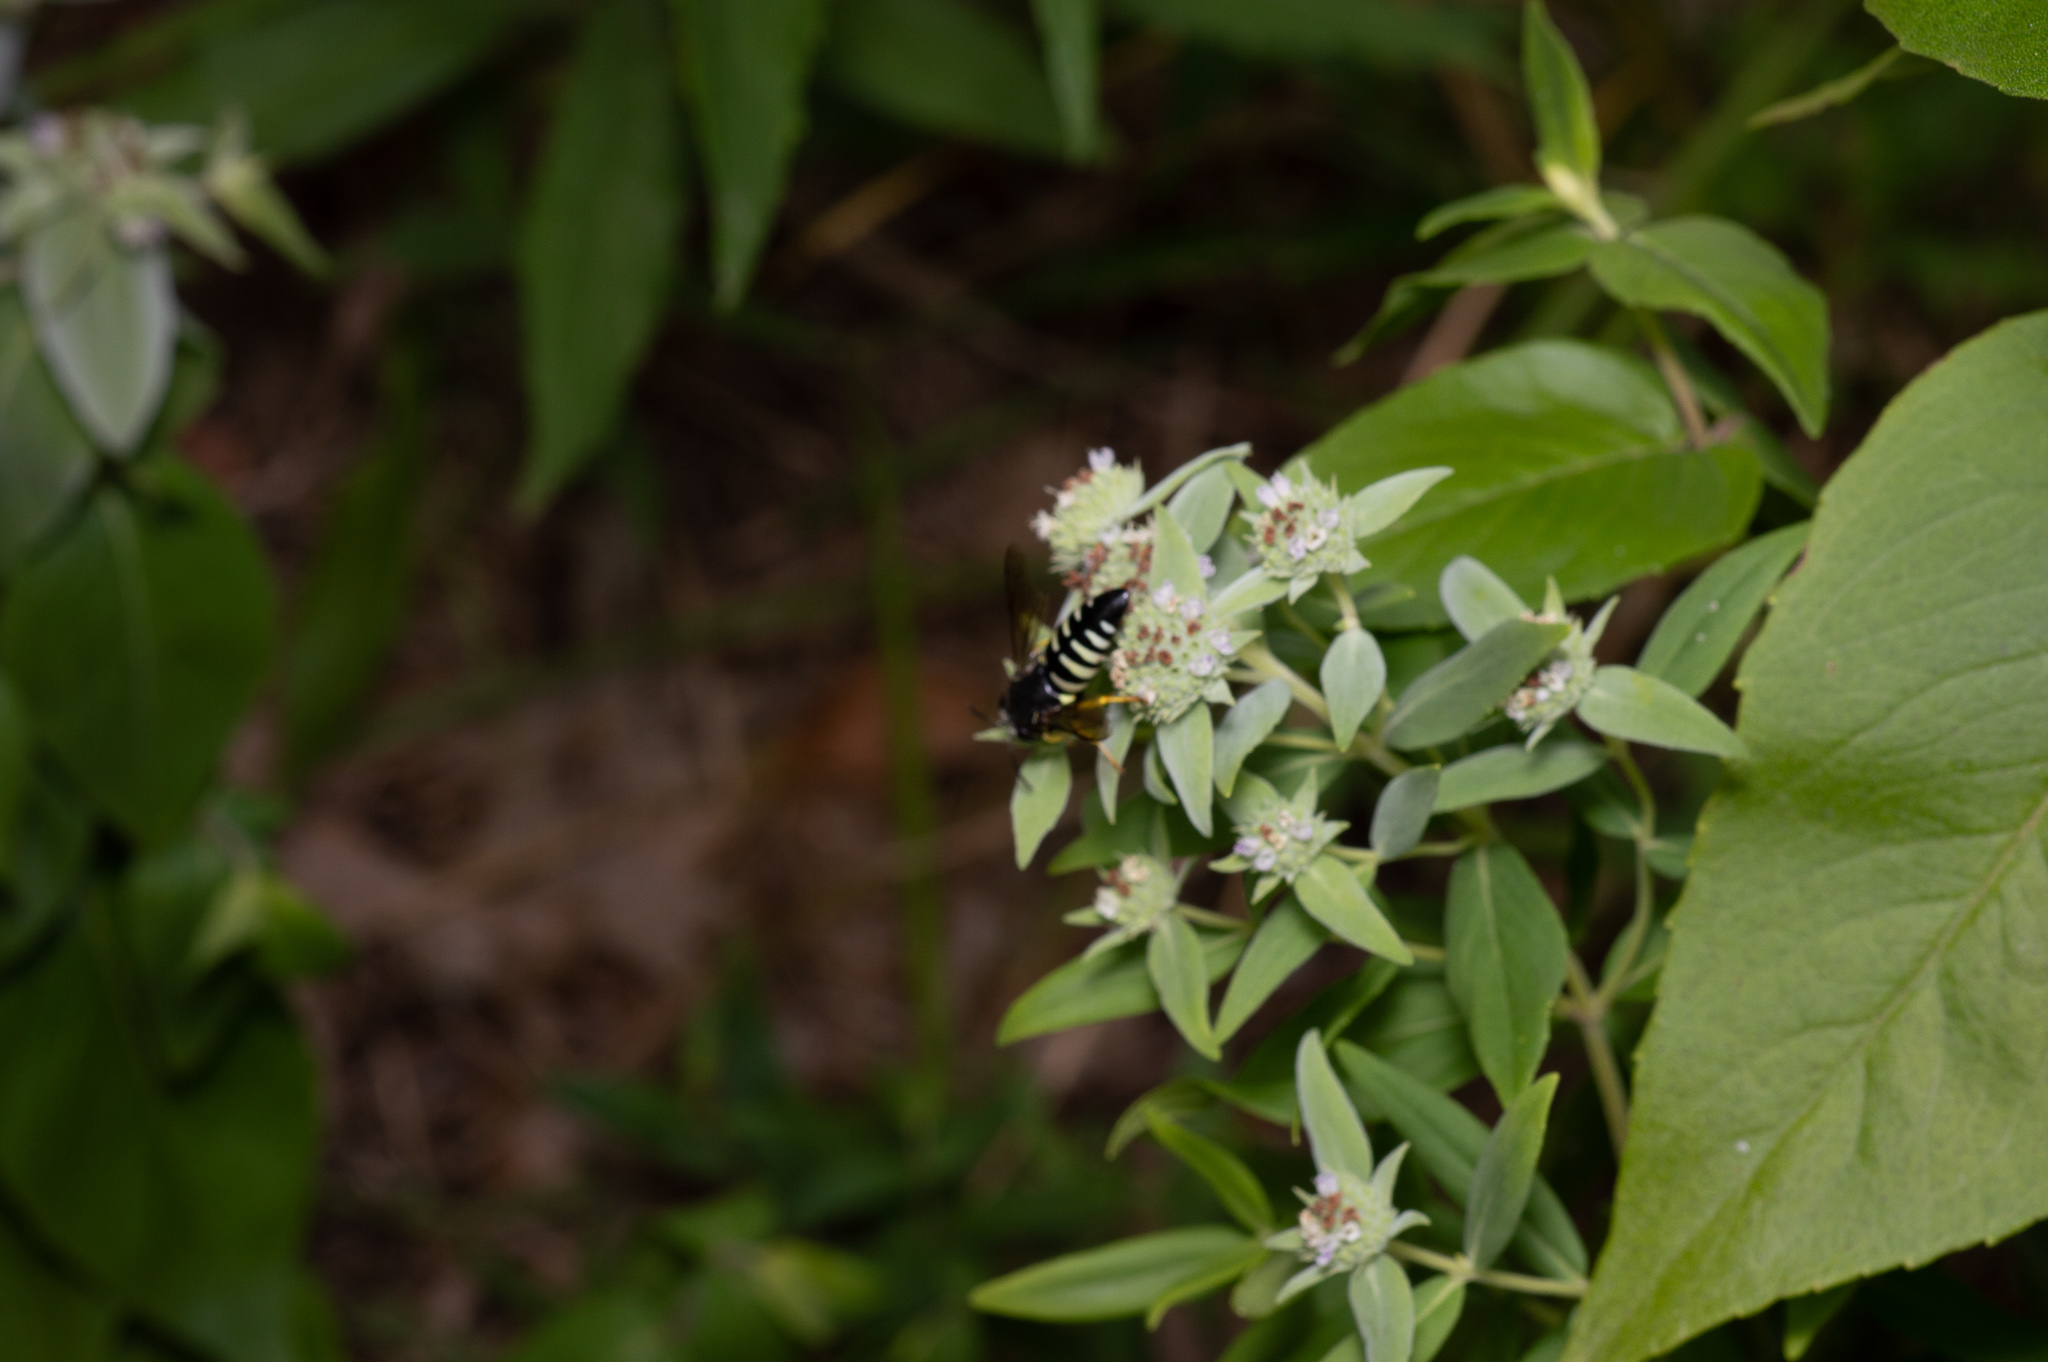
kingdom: Animalia
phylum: Arthropoda
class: Insecta
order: Hymenoptera
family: Crabronidae
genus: Bicyrtes
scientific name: Bicyrtes quadrifasciatus
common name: Four-banded stink bug hunter wasp
